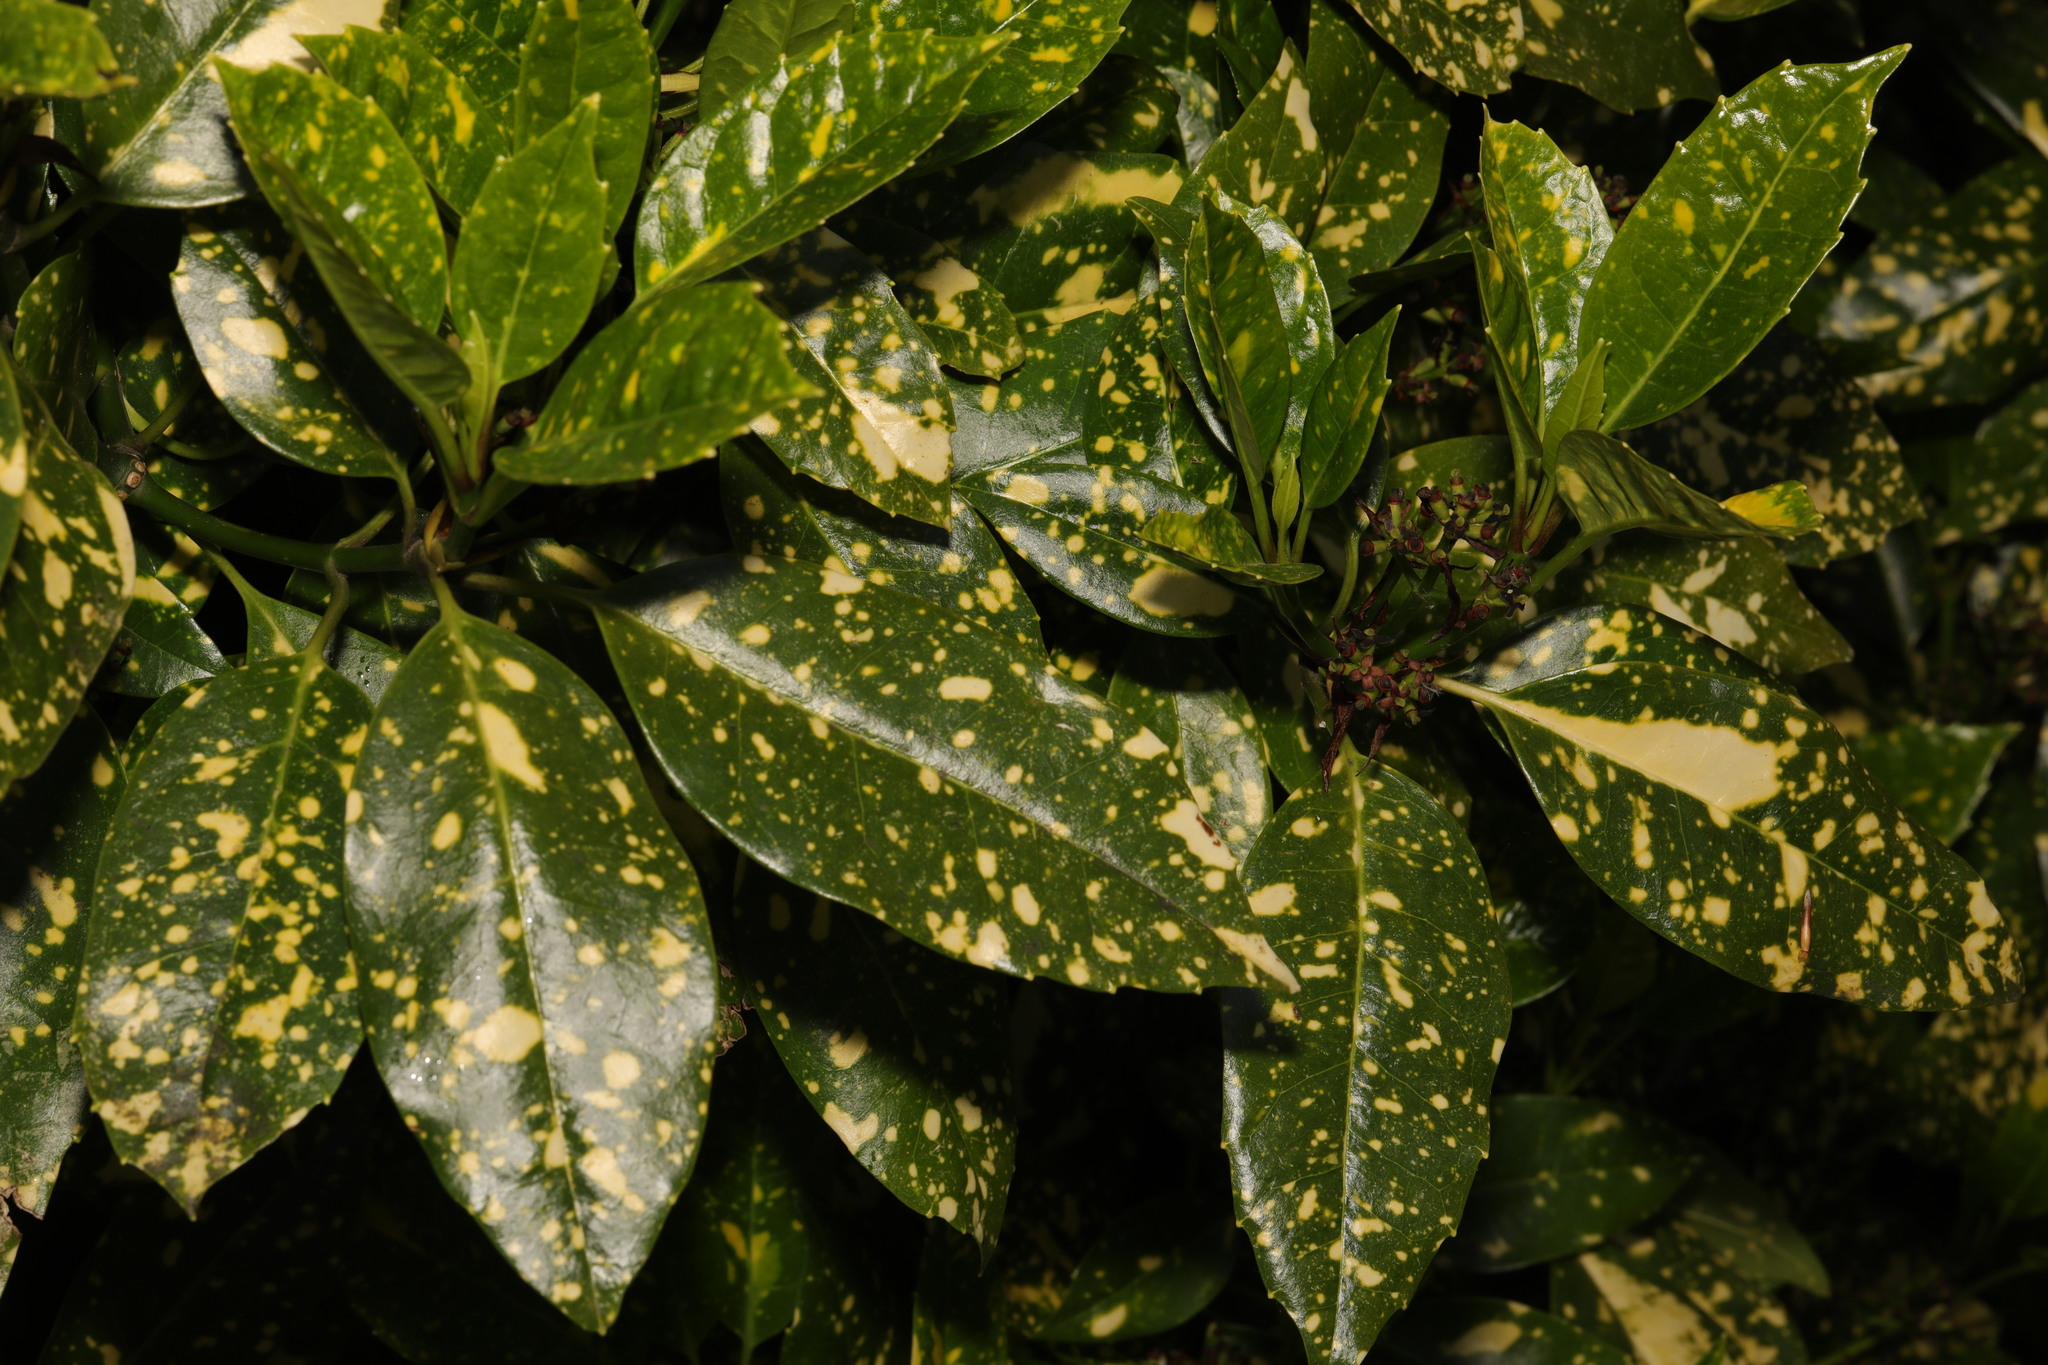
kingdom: Plantae
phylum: Tracheophyta
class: Magnoliopsida
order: Garryales
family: Garryaceae
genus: Aucuba
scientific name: Aucuba japonica
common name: Spotted-laurel
